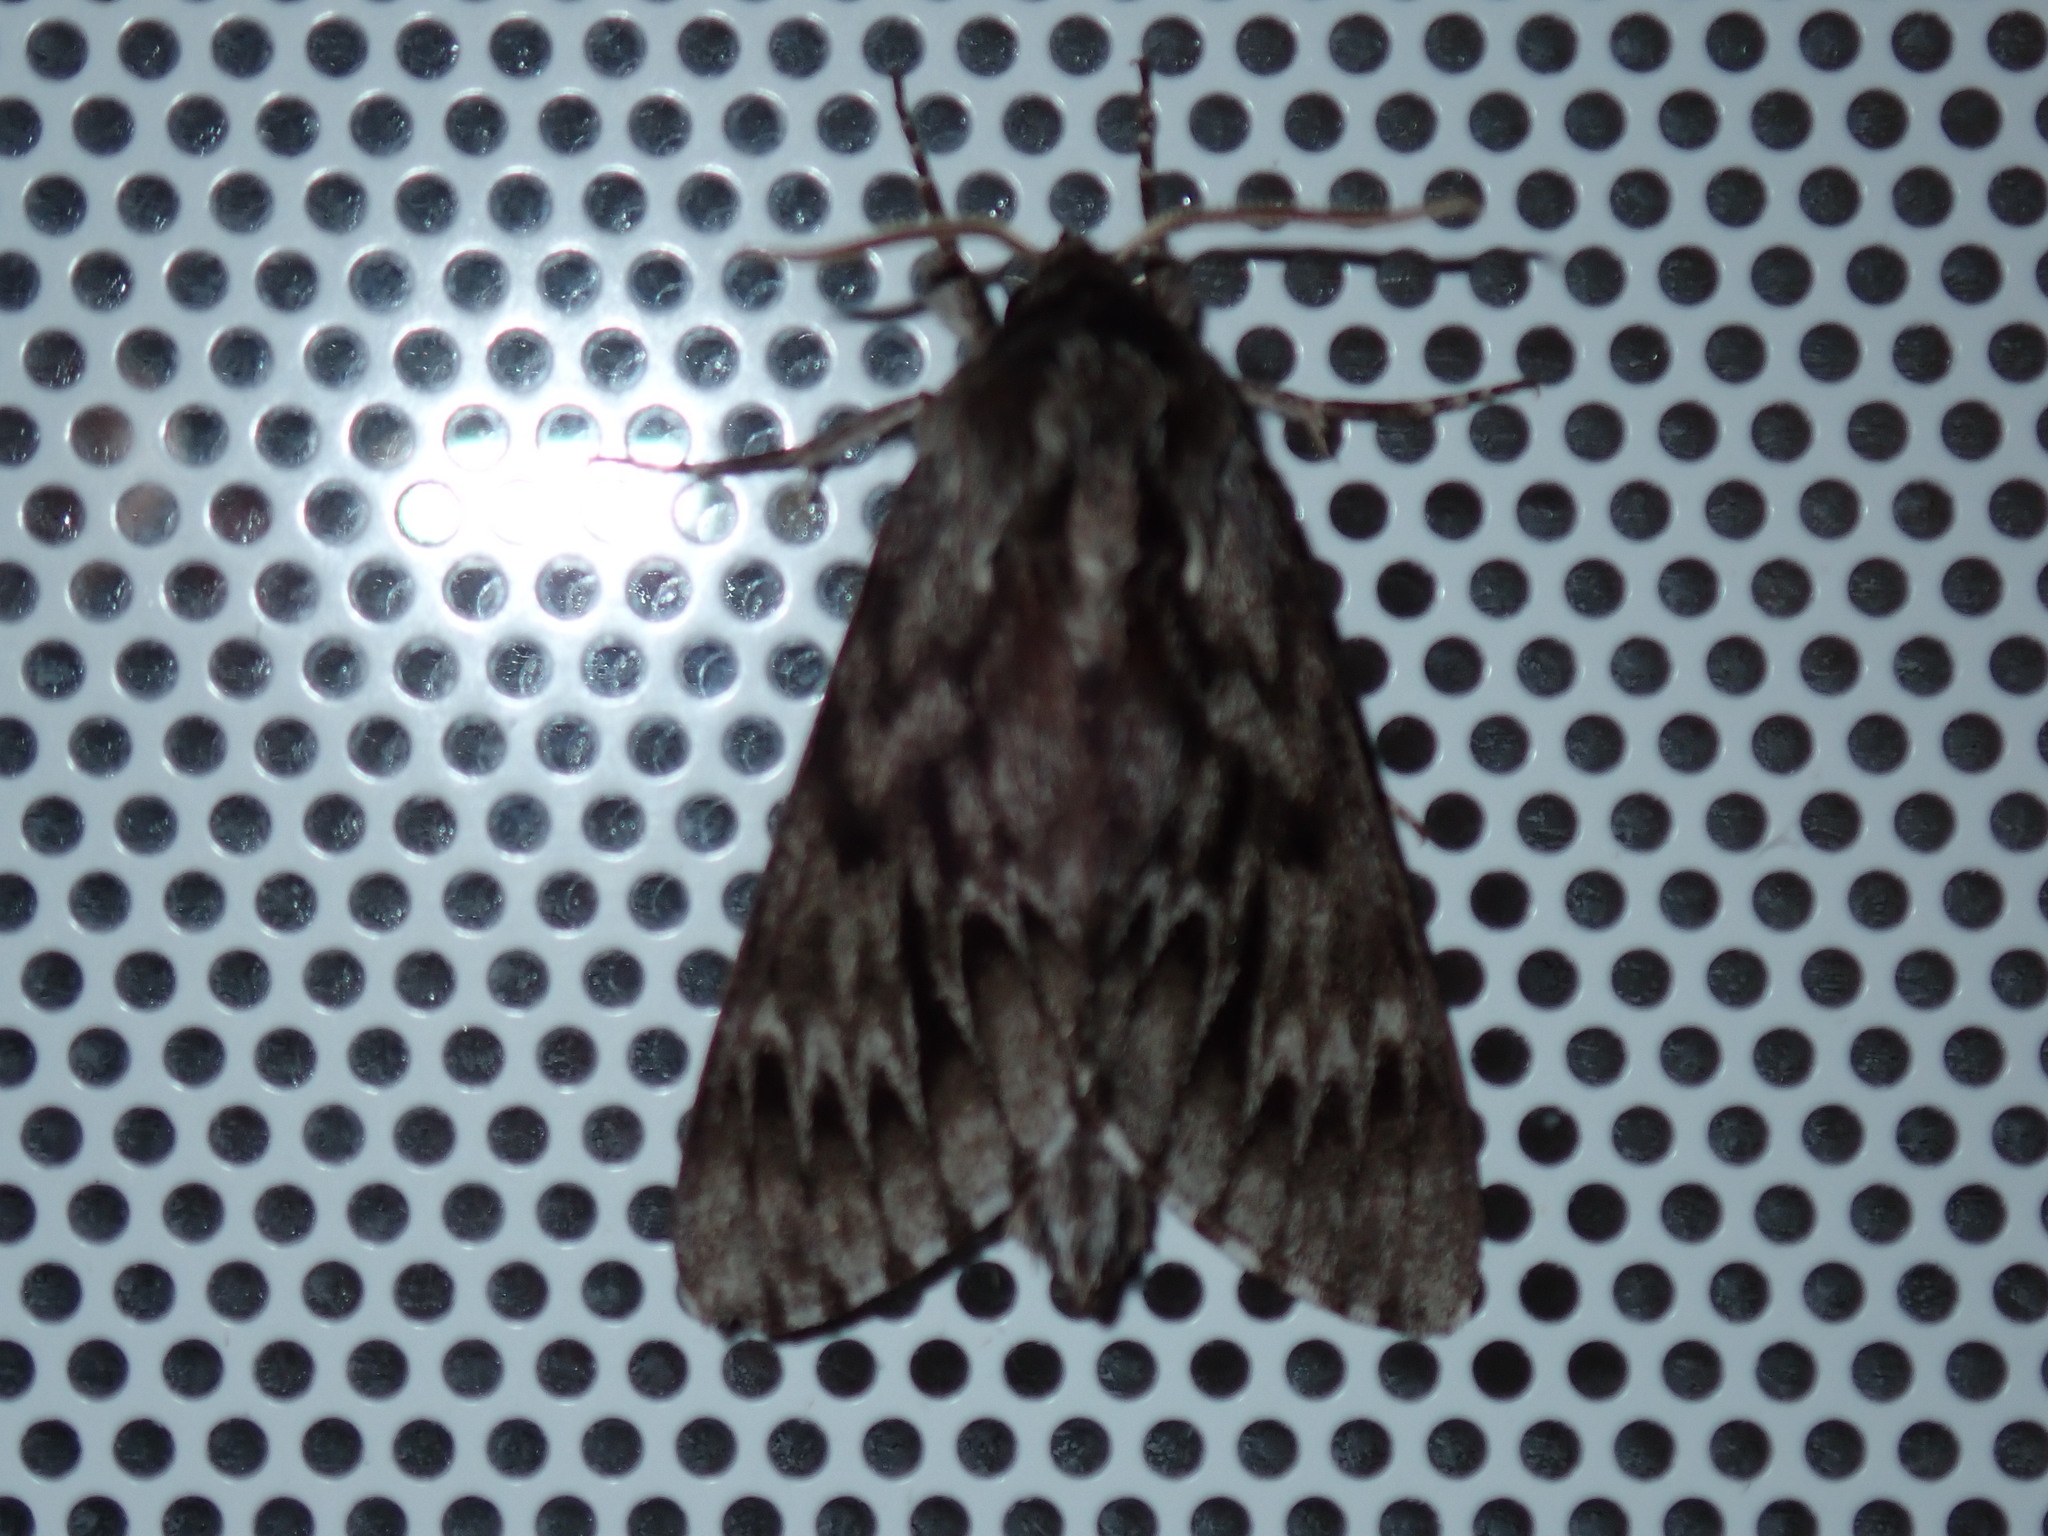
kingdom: Animalia
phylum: Arthropoda
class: Insecta
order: Lepidoptera
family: Sphingidae
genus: Lapara
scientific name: Lapara bombycoides
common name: Northern pine sphinx
